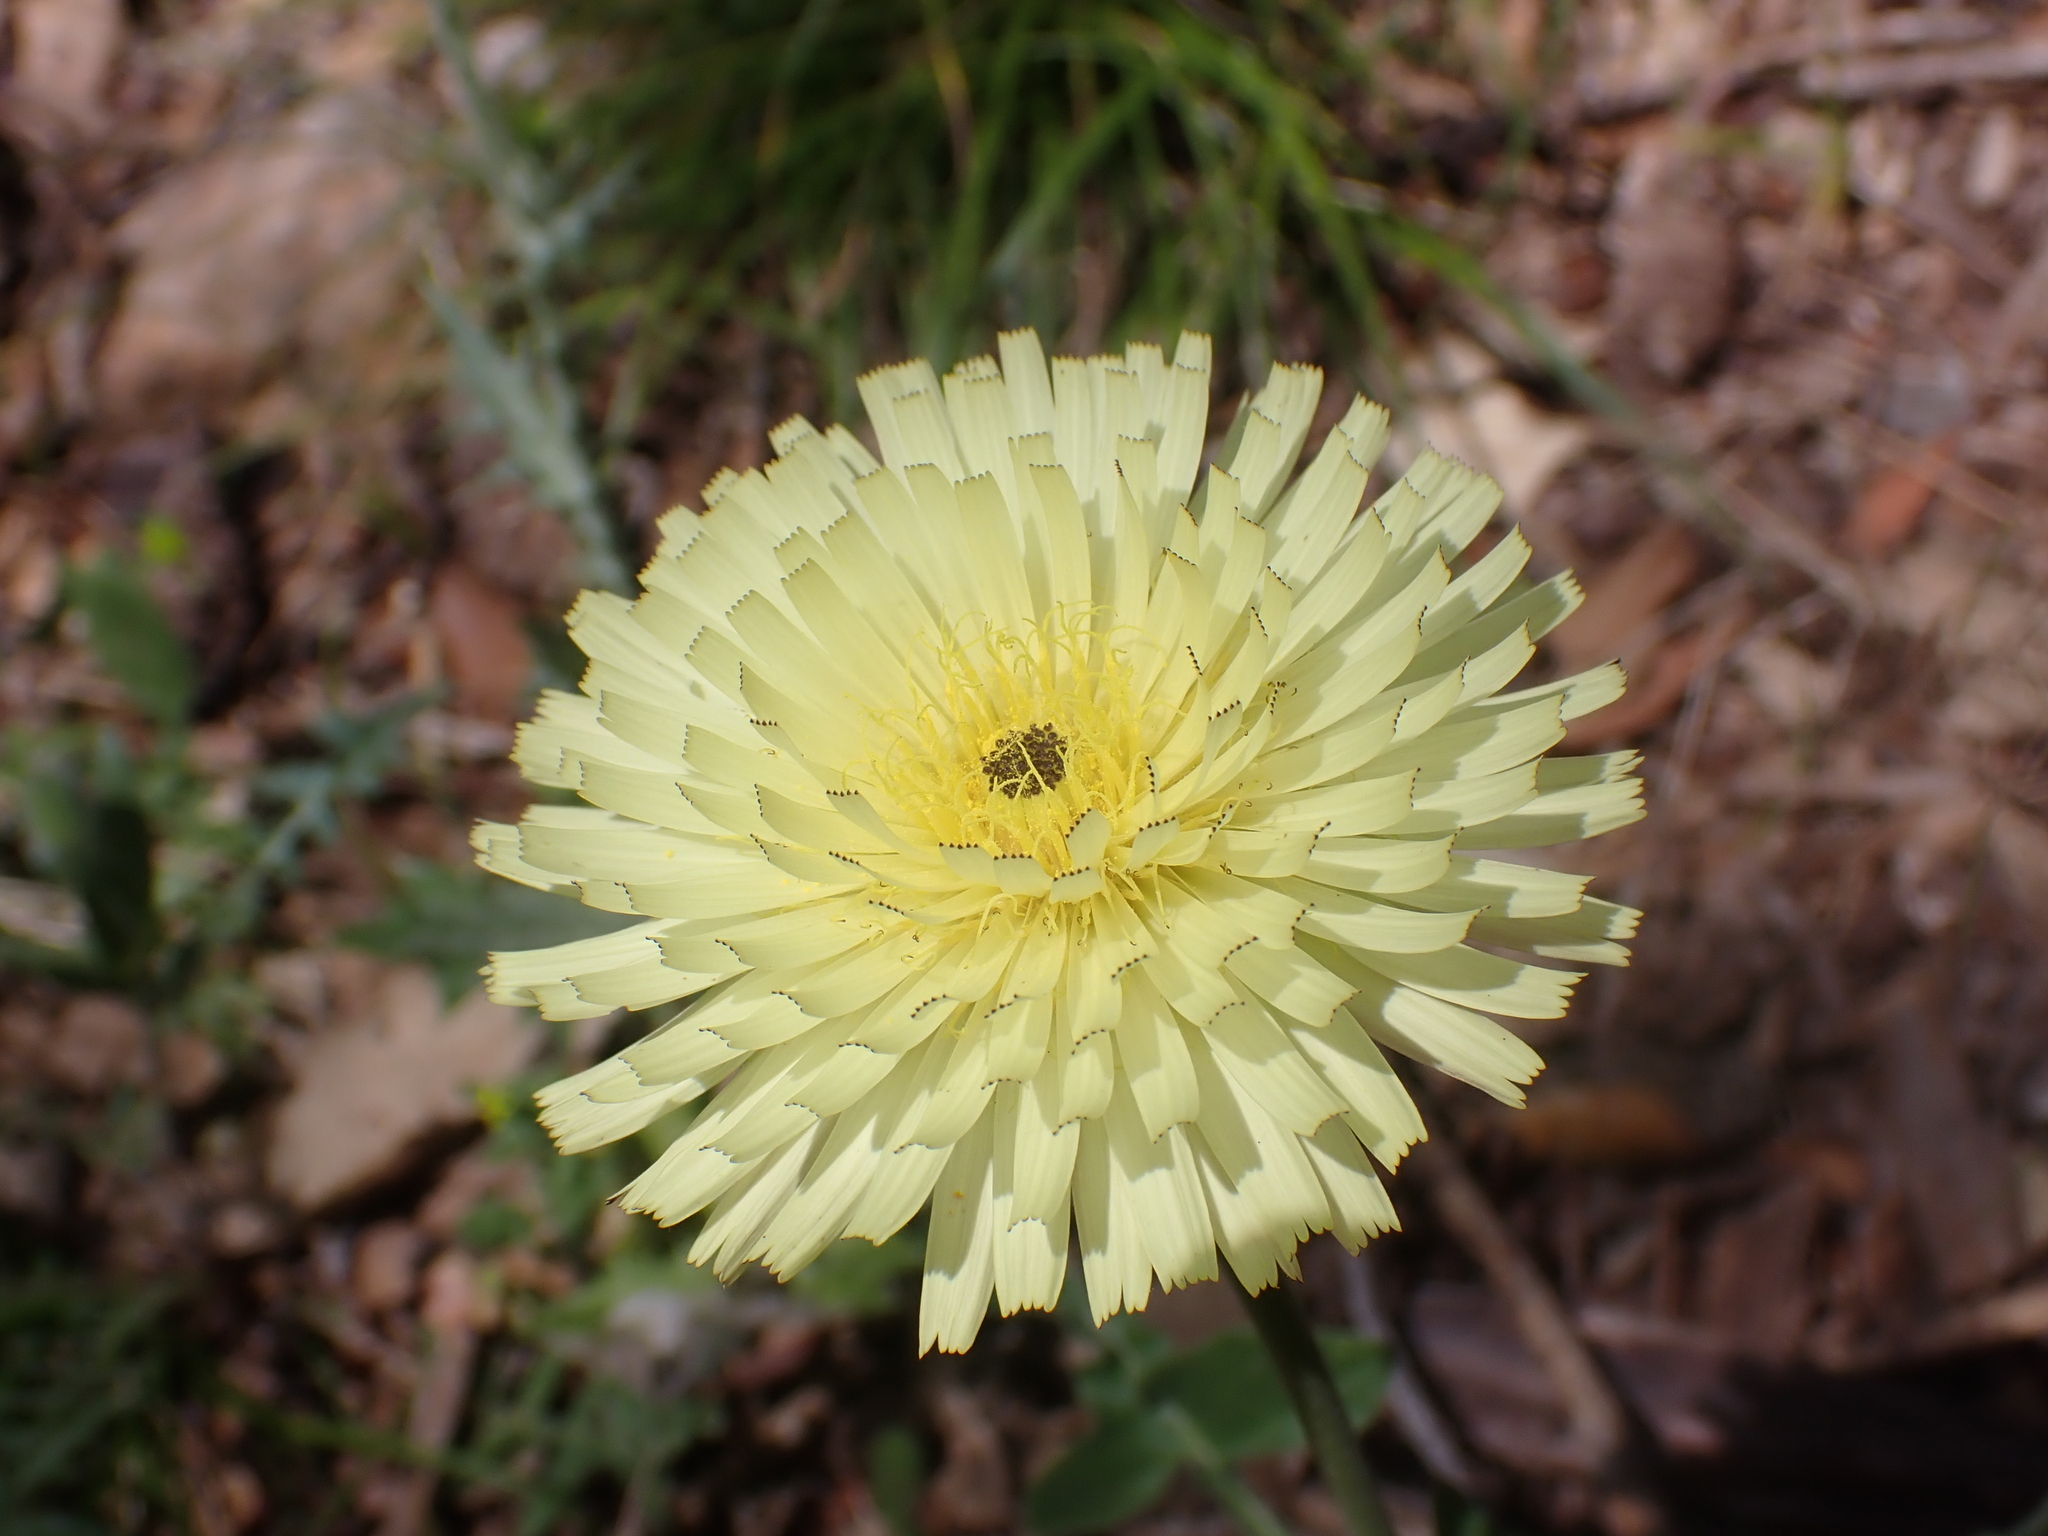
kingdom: Plantae
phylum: Tracheophyta
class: Magnoliopsida
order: Asterales
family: Asteraceae
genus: Urospermum
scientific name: Urospermum dalechampii
